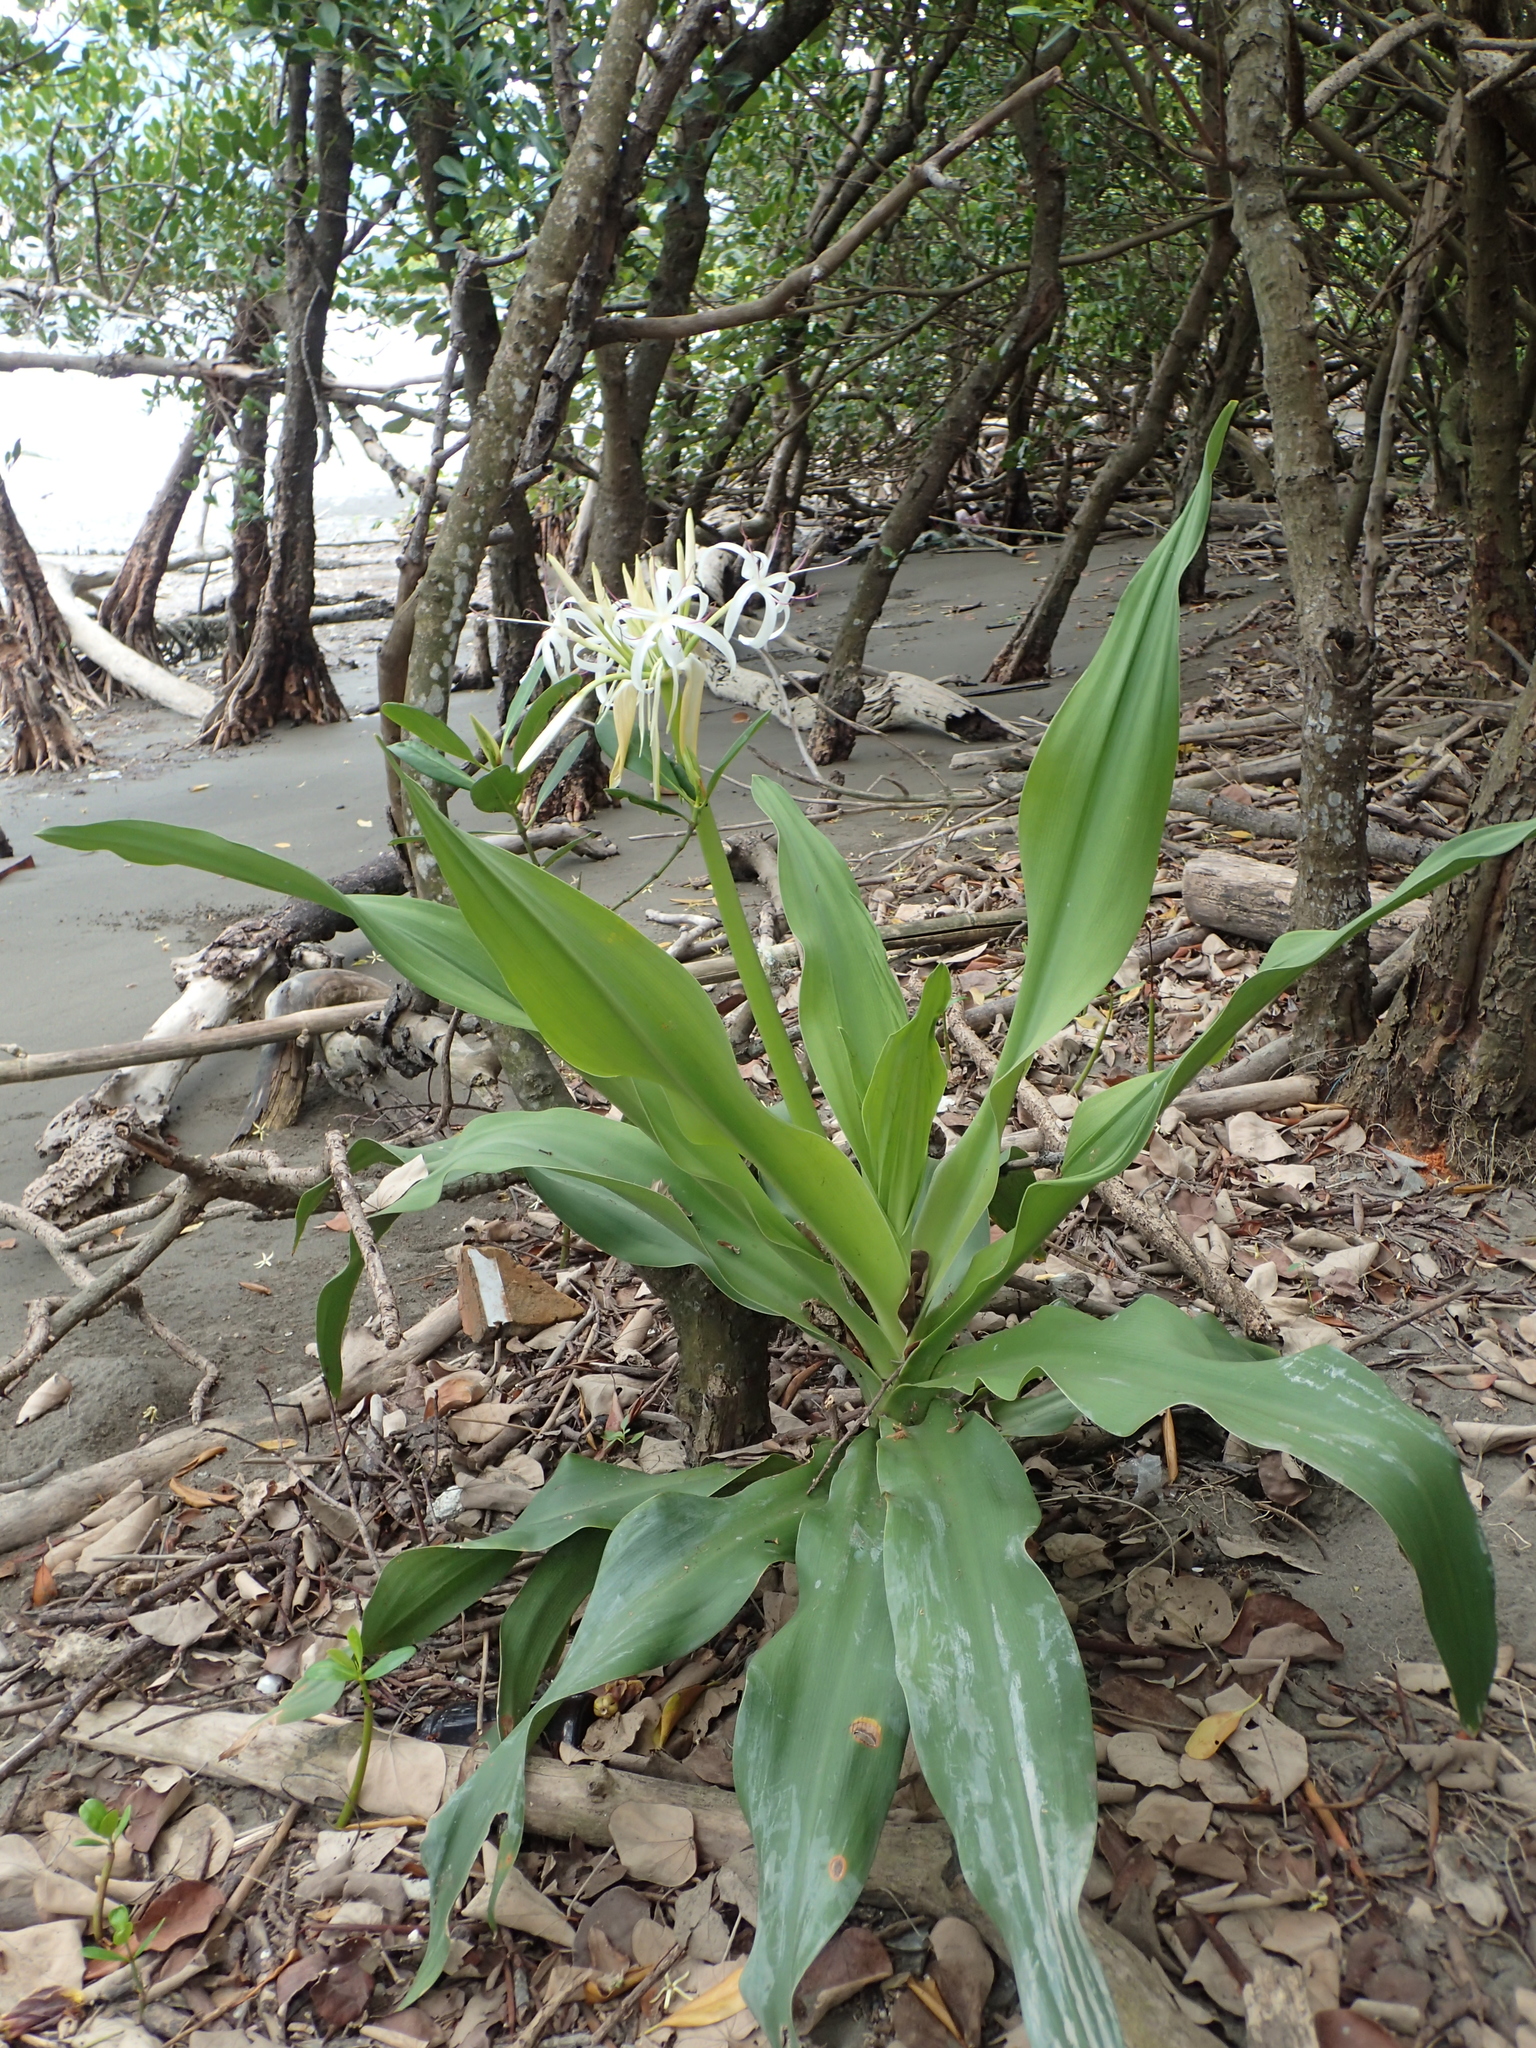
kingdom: Plantae
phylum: Tracheophyta
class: Liliopsida
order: Asparagales
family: Amaryllidaceae
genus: Crinum
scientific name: Crinum asiaticum
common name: Poisonbulb
